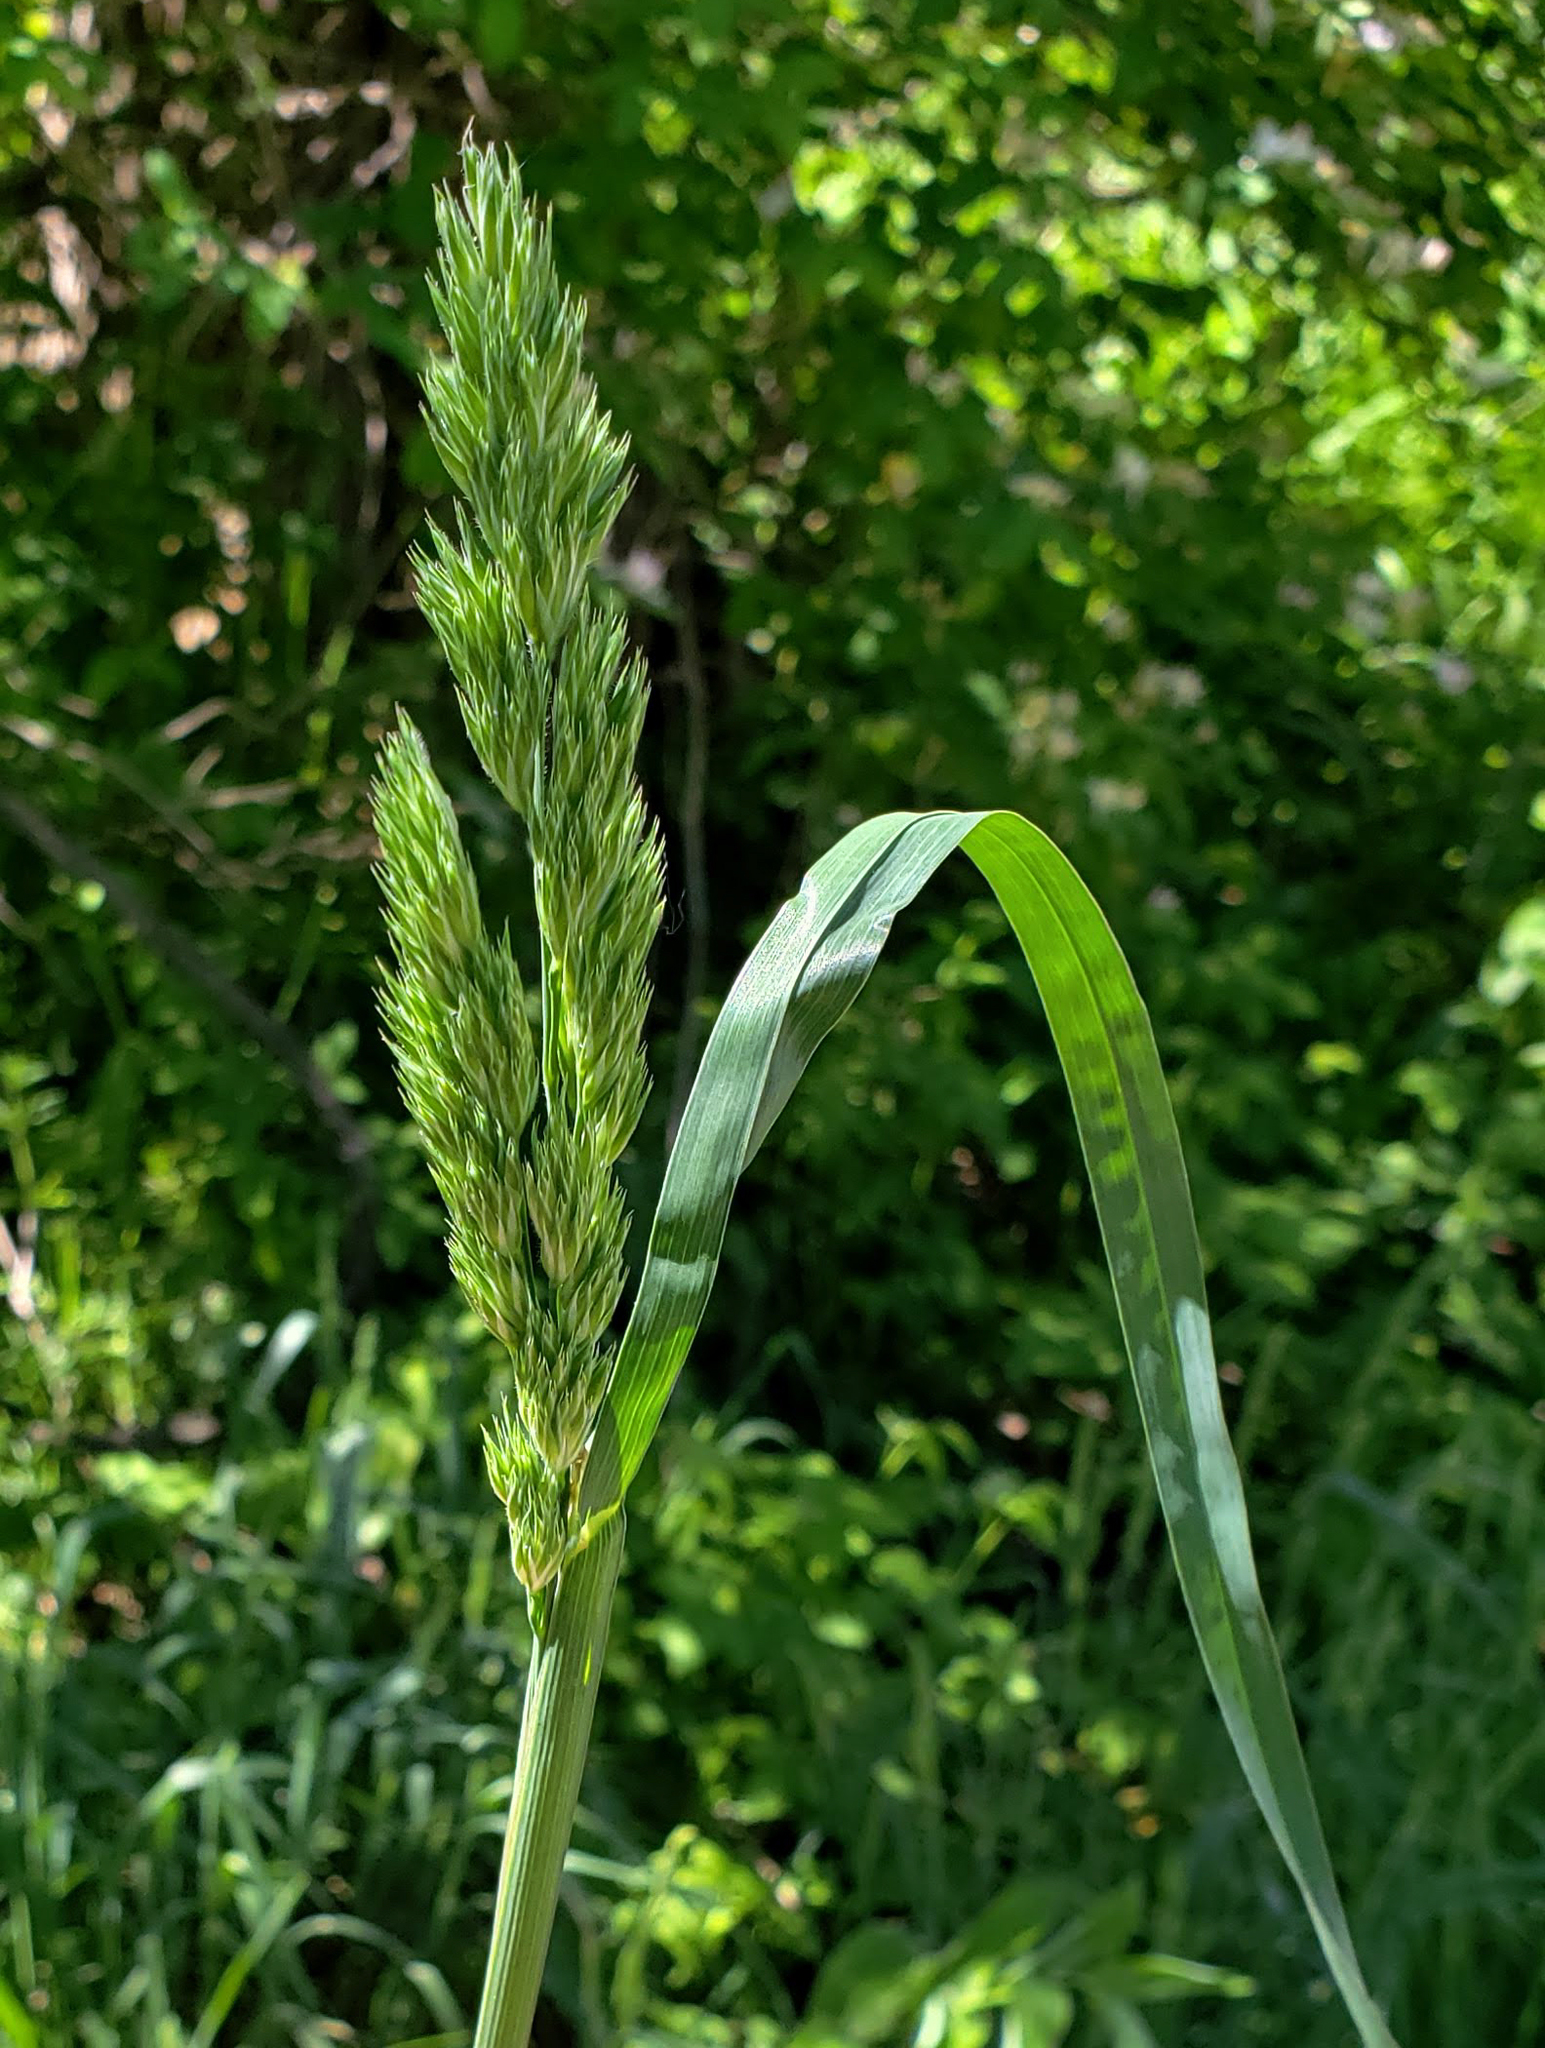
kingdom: Plantae
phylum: Tracheophyta
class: Liliopsida
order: Poales
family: Poaceae
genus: Dactylis
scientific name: Dactylis glomerata
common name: Orchardgrass
